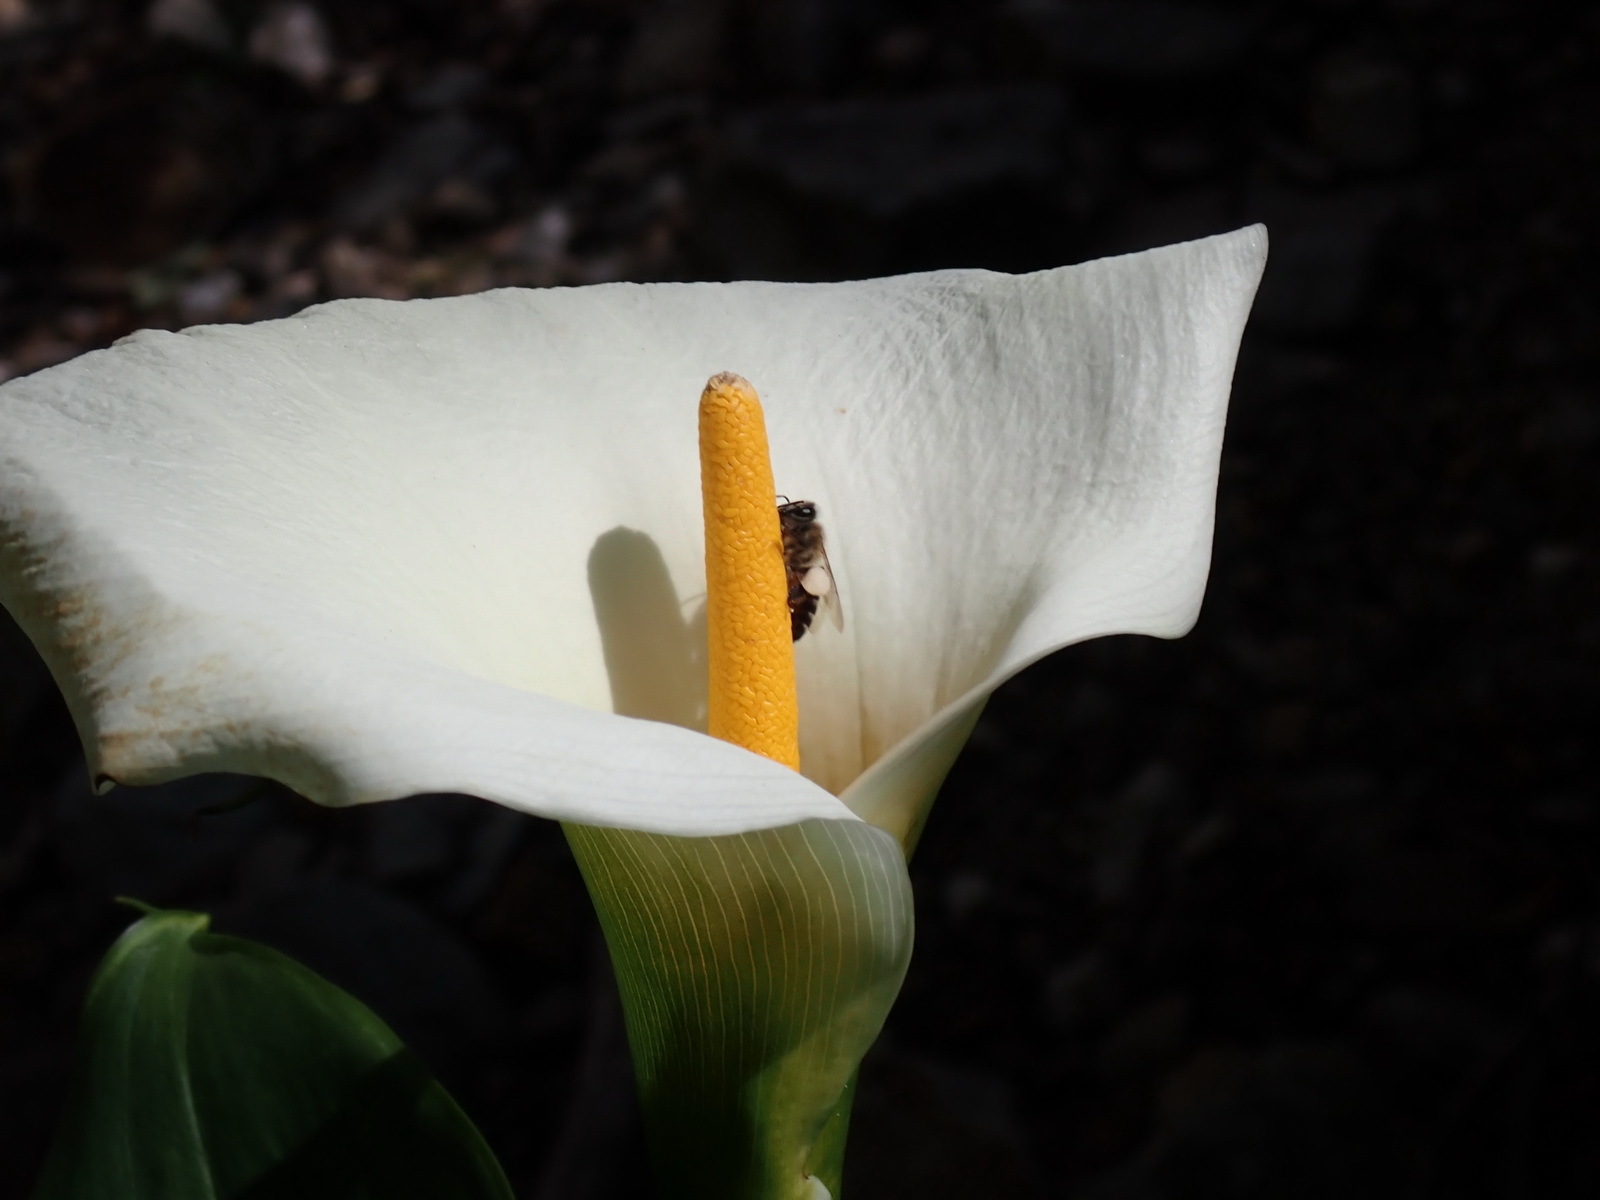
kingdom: Animalia
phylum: Arthropoda
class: Insecta
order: Hymenoptera
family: Apidae
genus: Apis
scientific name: Apis mellifera
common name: Honey bee
